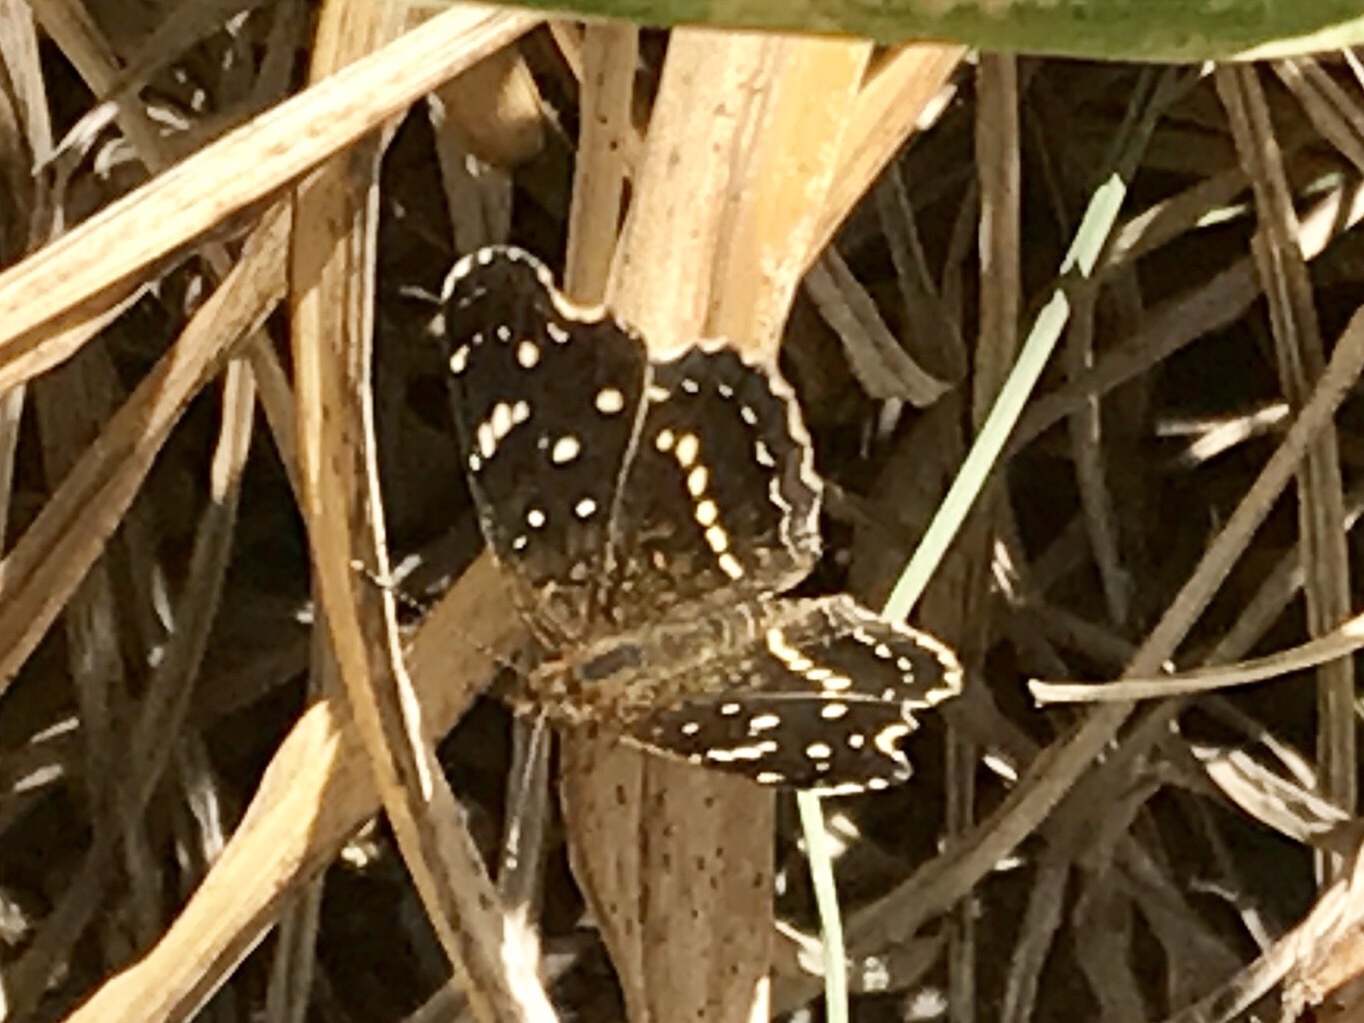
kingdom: Animalia
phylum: Arthropoda
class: Insecta
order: Lepidoptera
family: Nymphalidae
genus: Anthanassa
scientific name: Anthanassa texana
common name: Texan crescent
